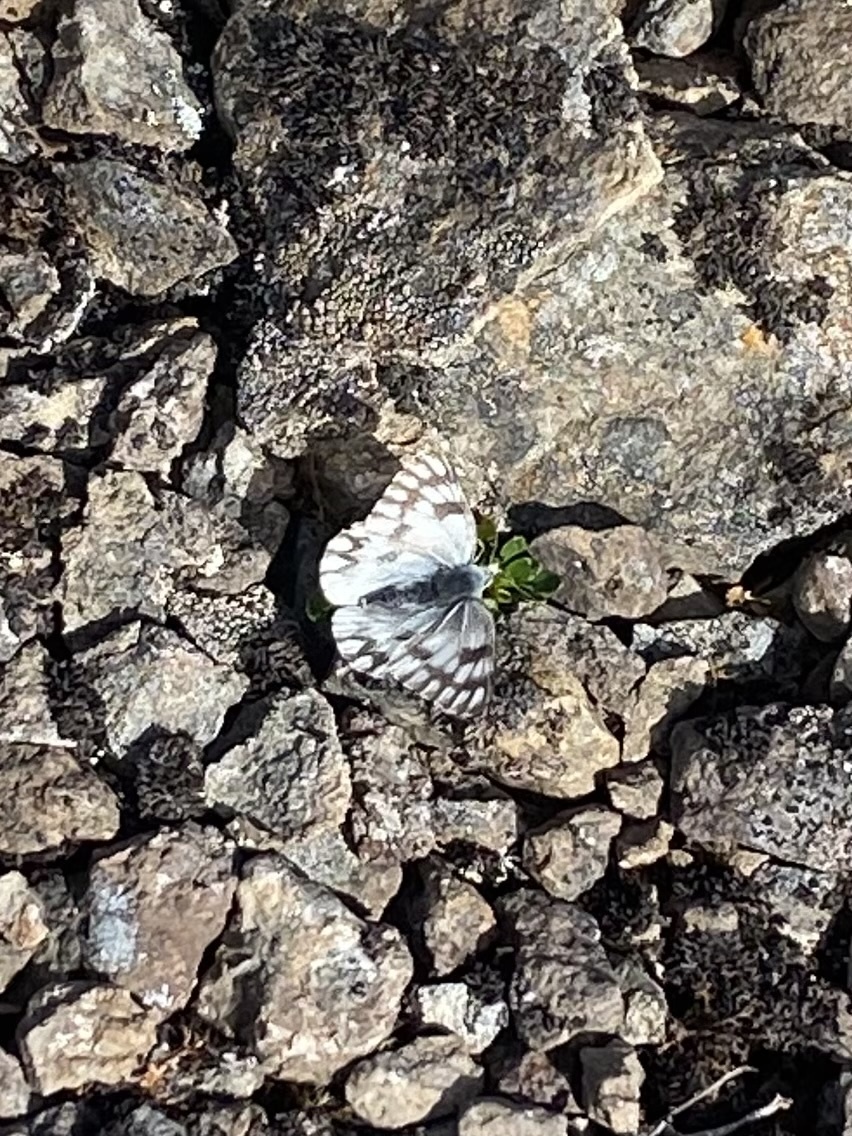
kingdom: Animalia
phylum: Arthropoda
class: Insecta
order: Lepidoptera
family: Pieridae
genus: Pontia
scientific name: Pontia callidice
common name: Peak white
